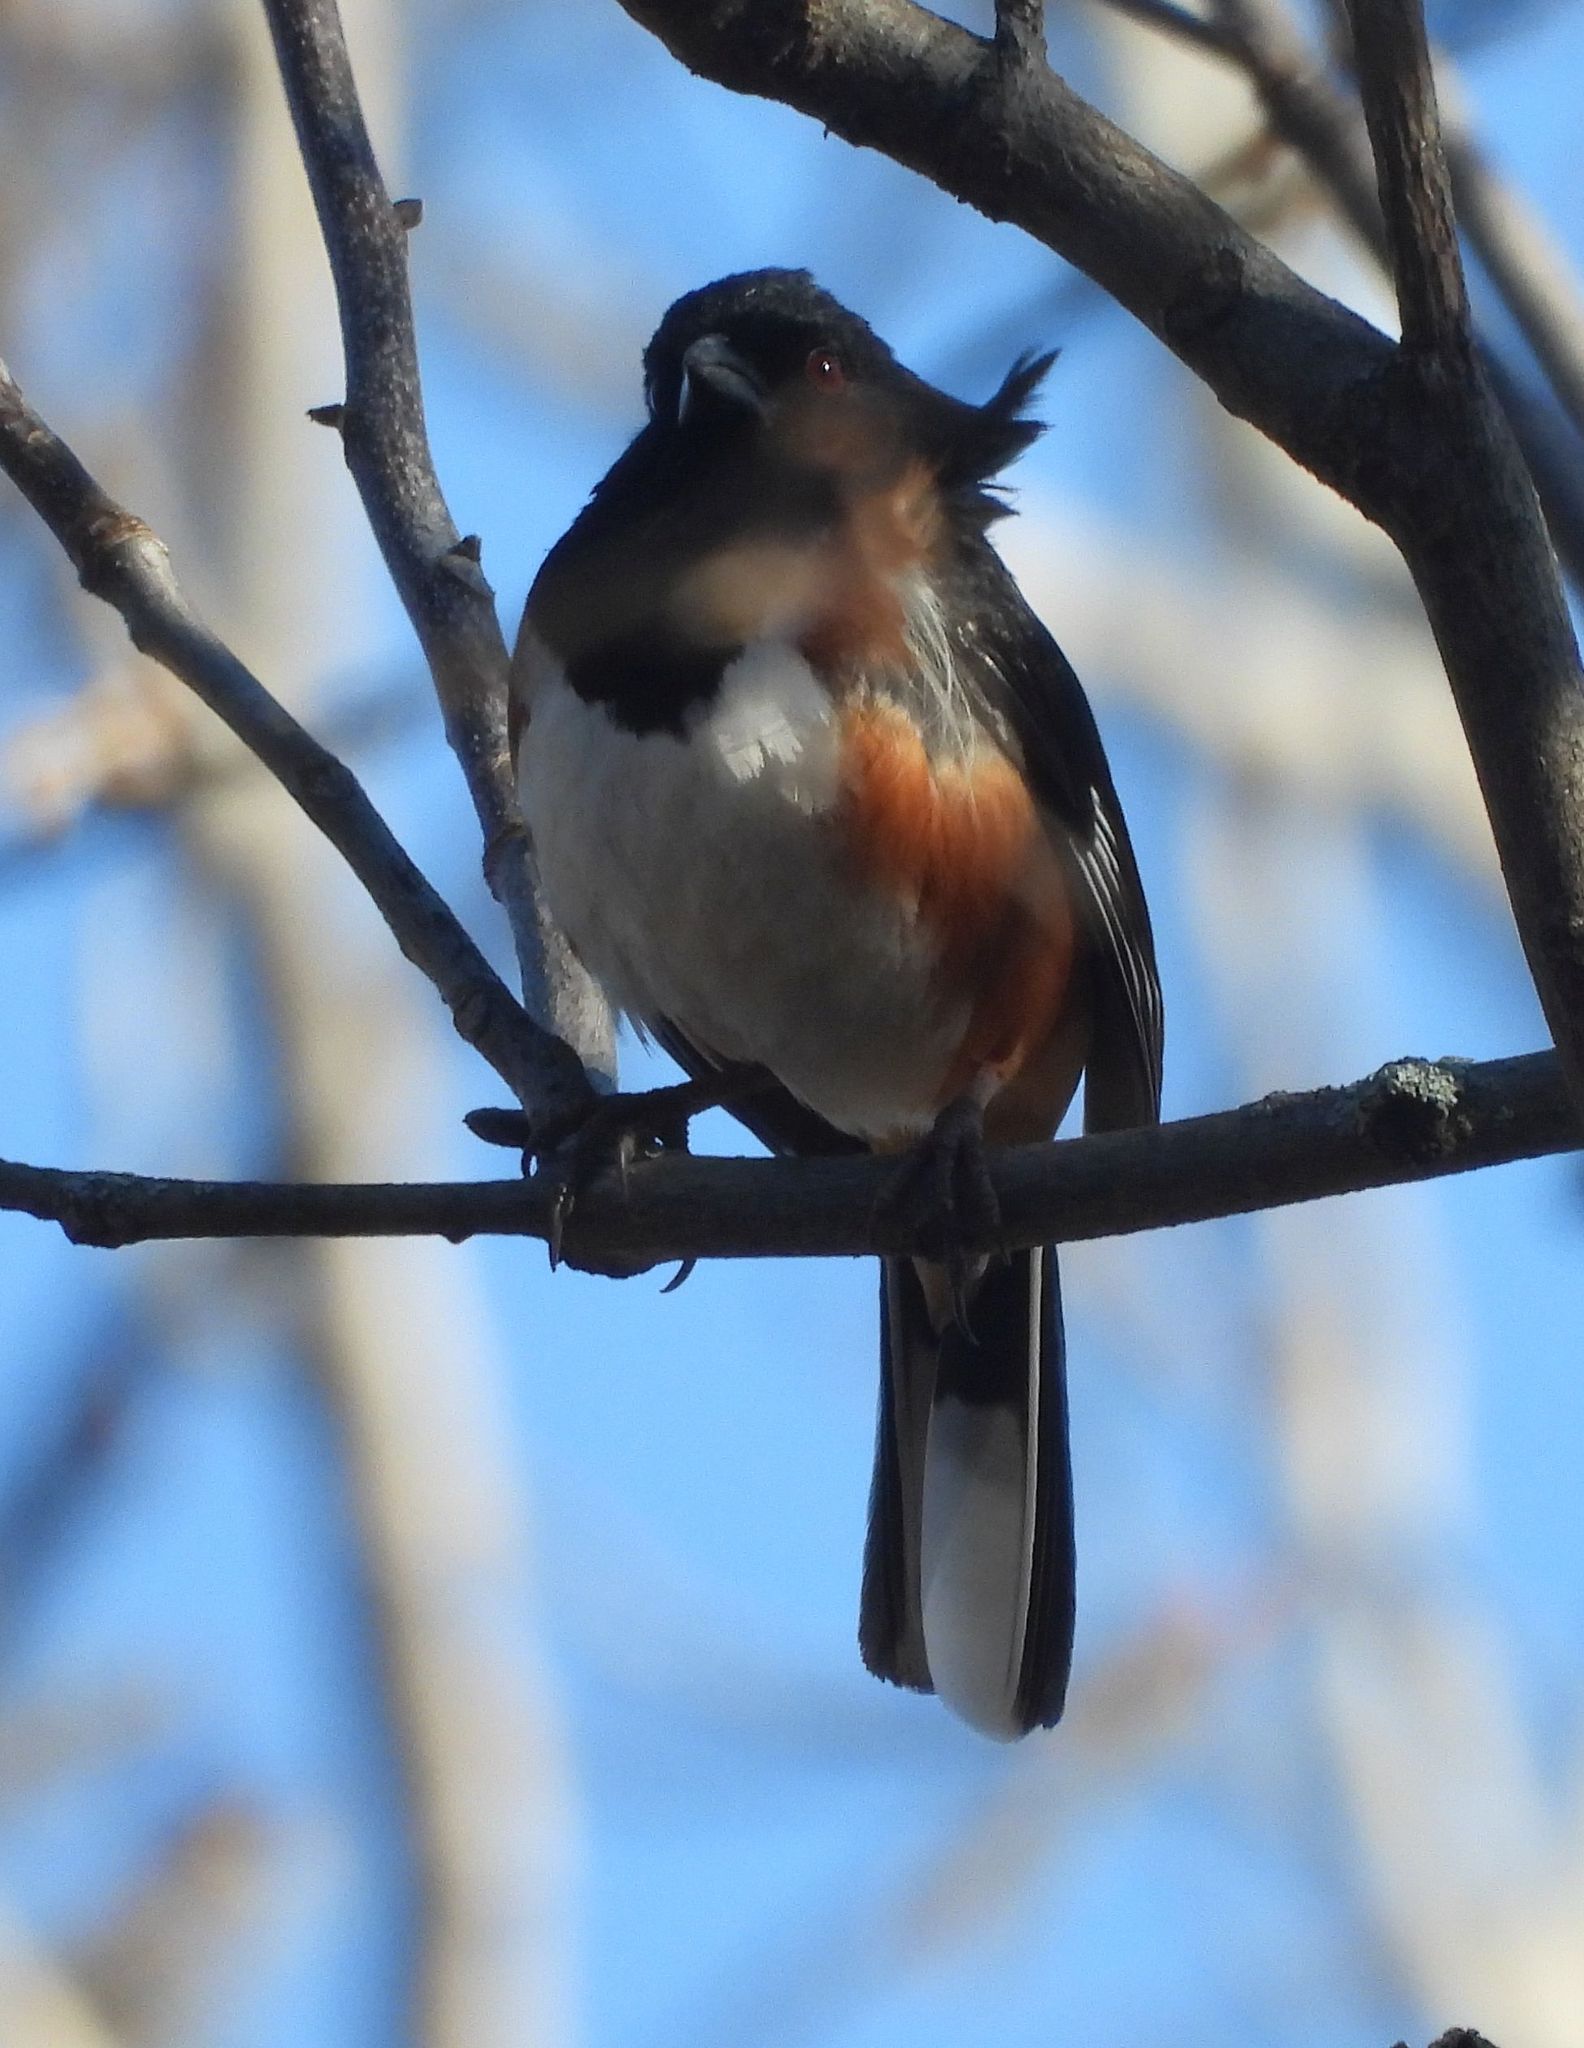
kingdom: Animalia
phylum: Chordata
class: Aves
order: Passeriformes
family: Passerellidae
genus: Pipilo
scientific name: Pipilo erythrophthalmus
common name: Eastern towhee
